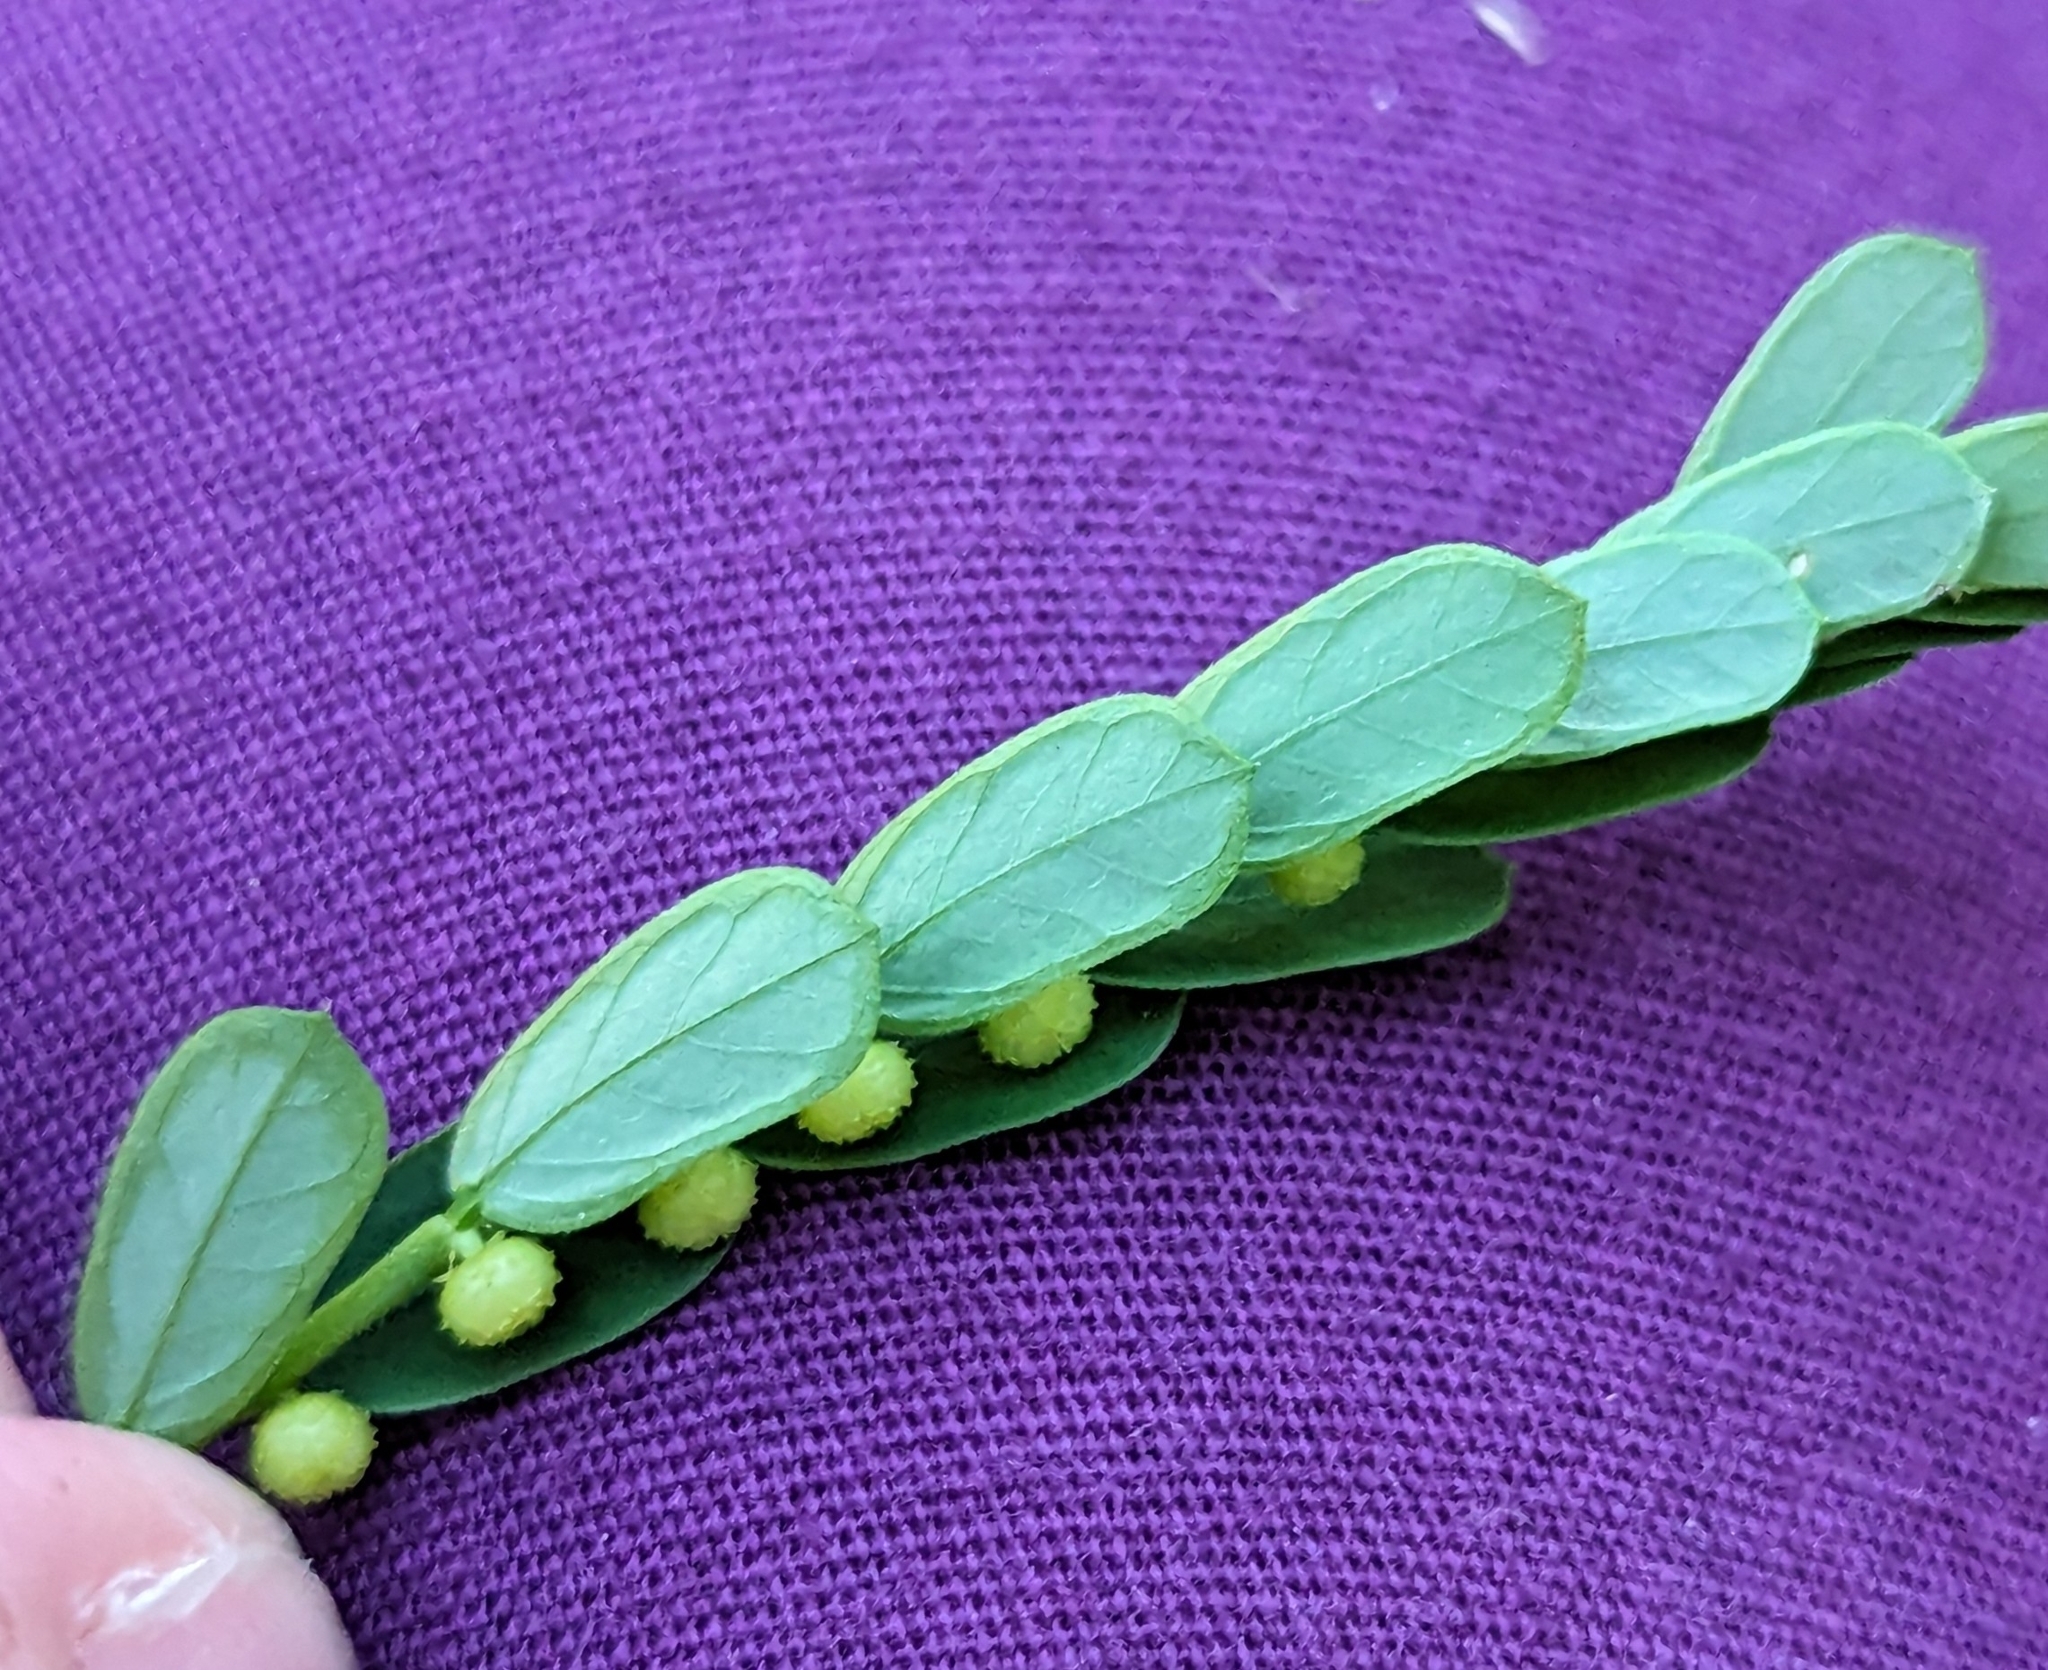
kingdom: Plantae
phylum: Tracheophyta
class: Magnoliopsida
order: Malpighiales
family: Phyllanthaceae
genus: Phyllanthus
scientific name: Phyllanthus urinaria
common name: Chamber bitter
